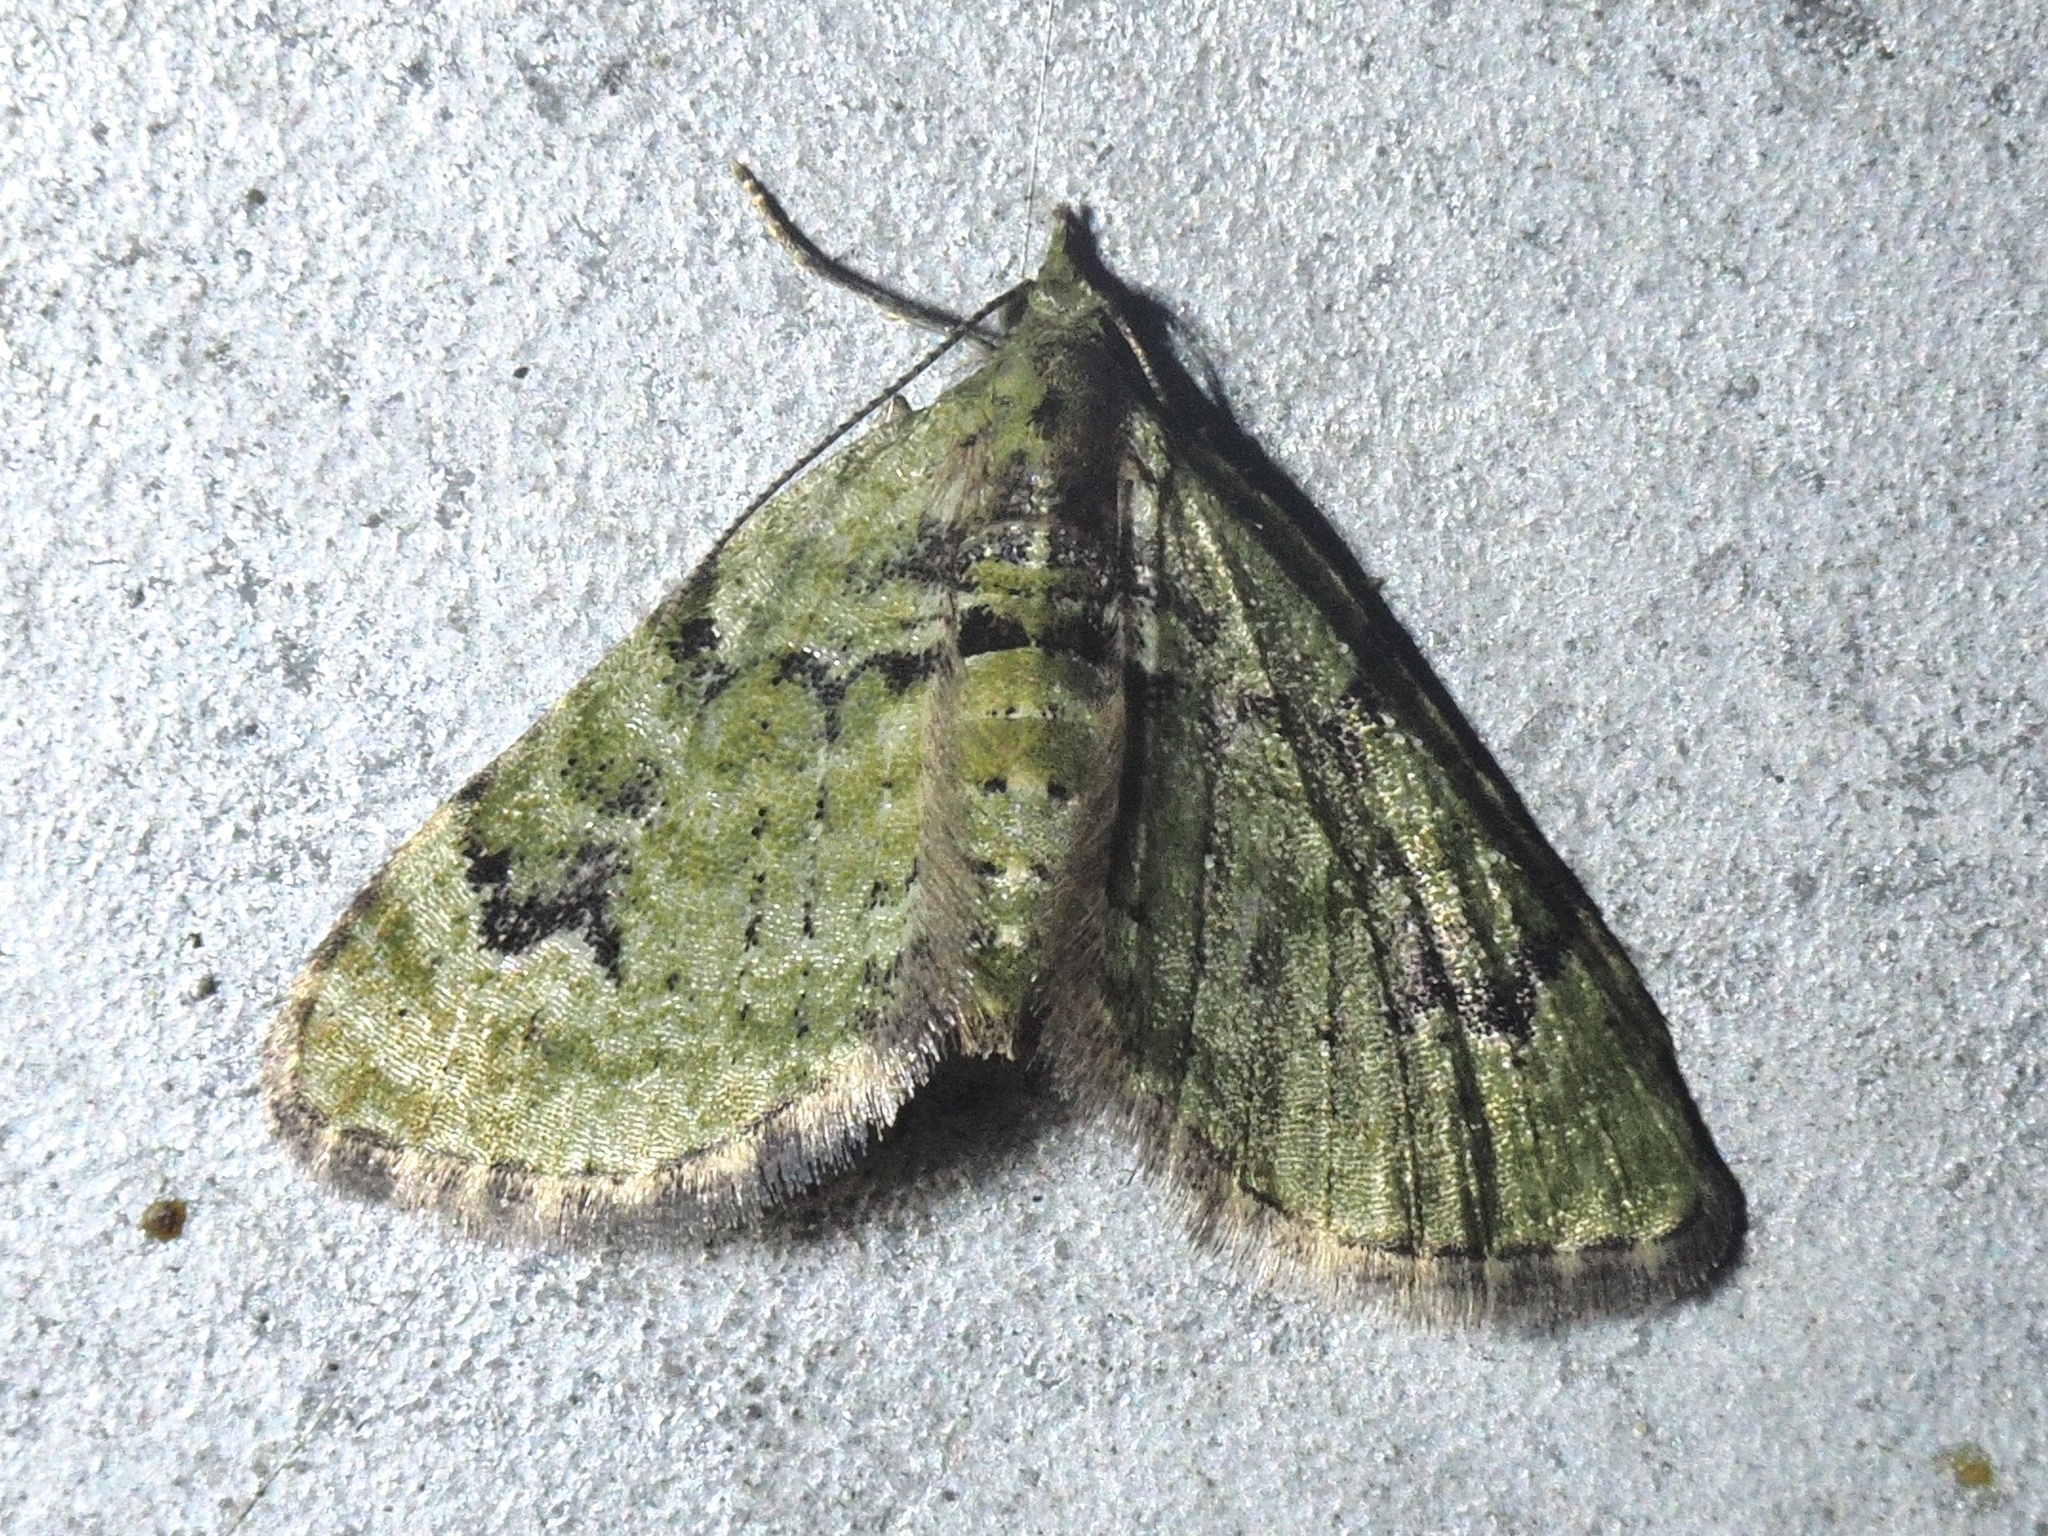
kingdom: Animalia
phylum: Arthropoda
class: Insecta
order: Lepidoptera
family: Geometridae
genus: Chloroclystis
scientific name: Chloroclystis v-ata
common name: V-pug
